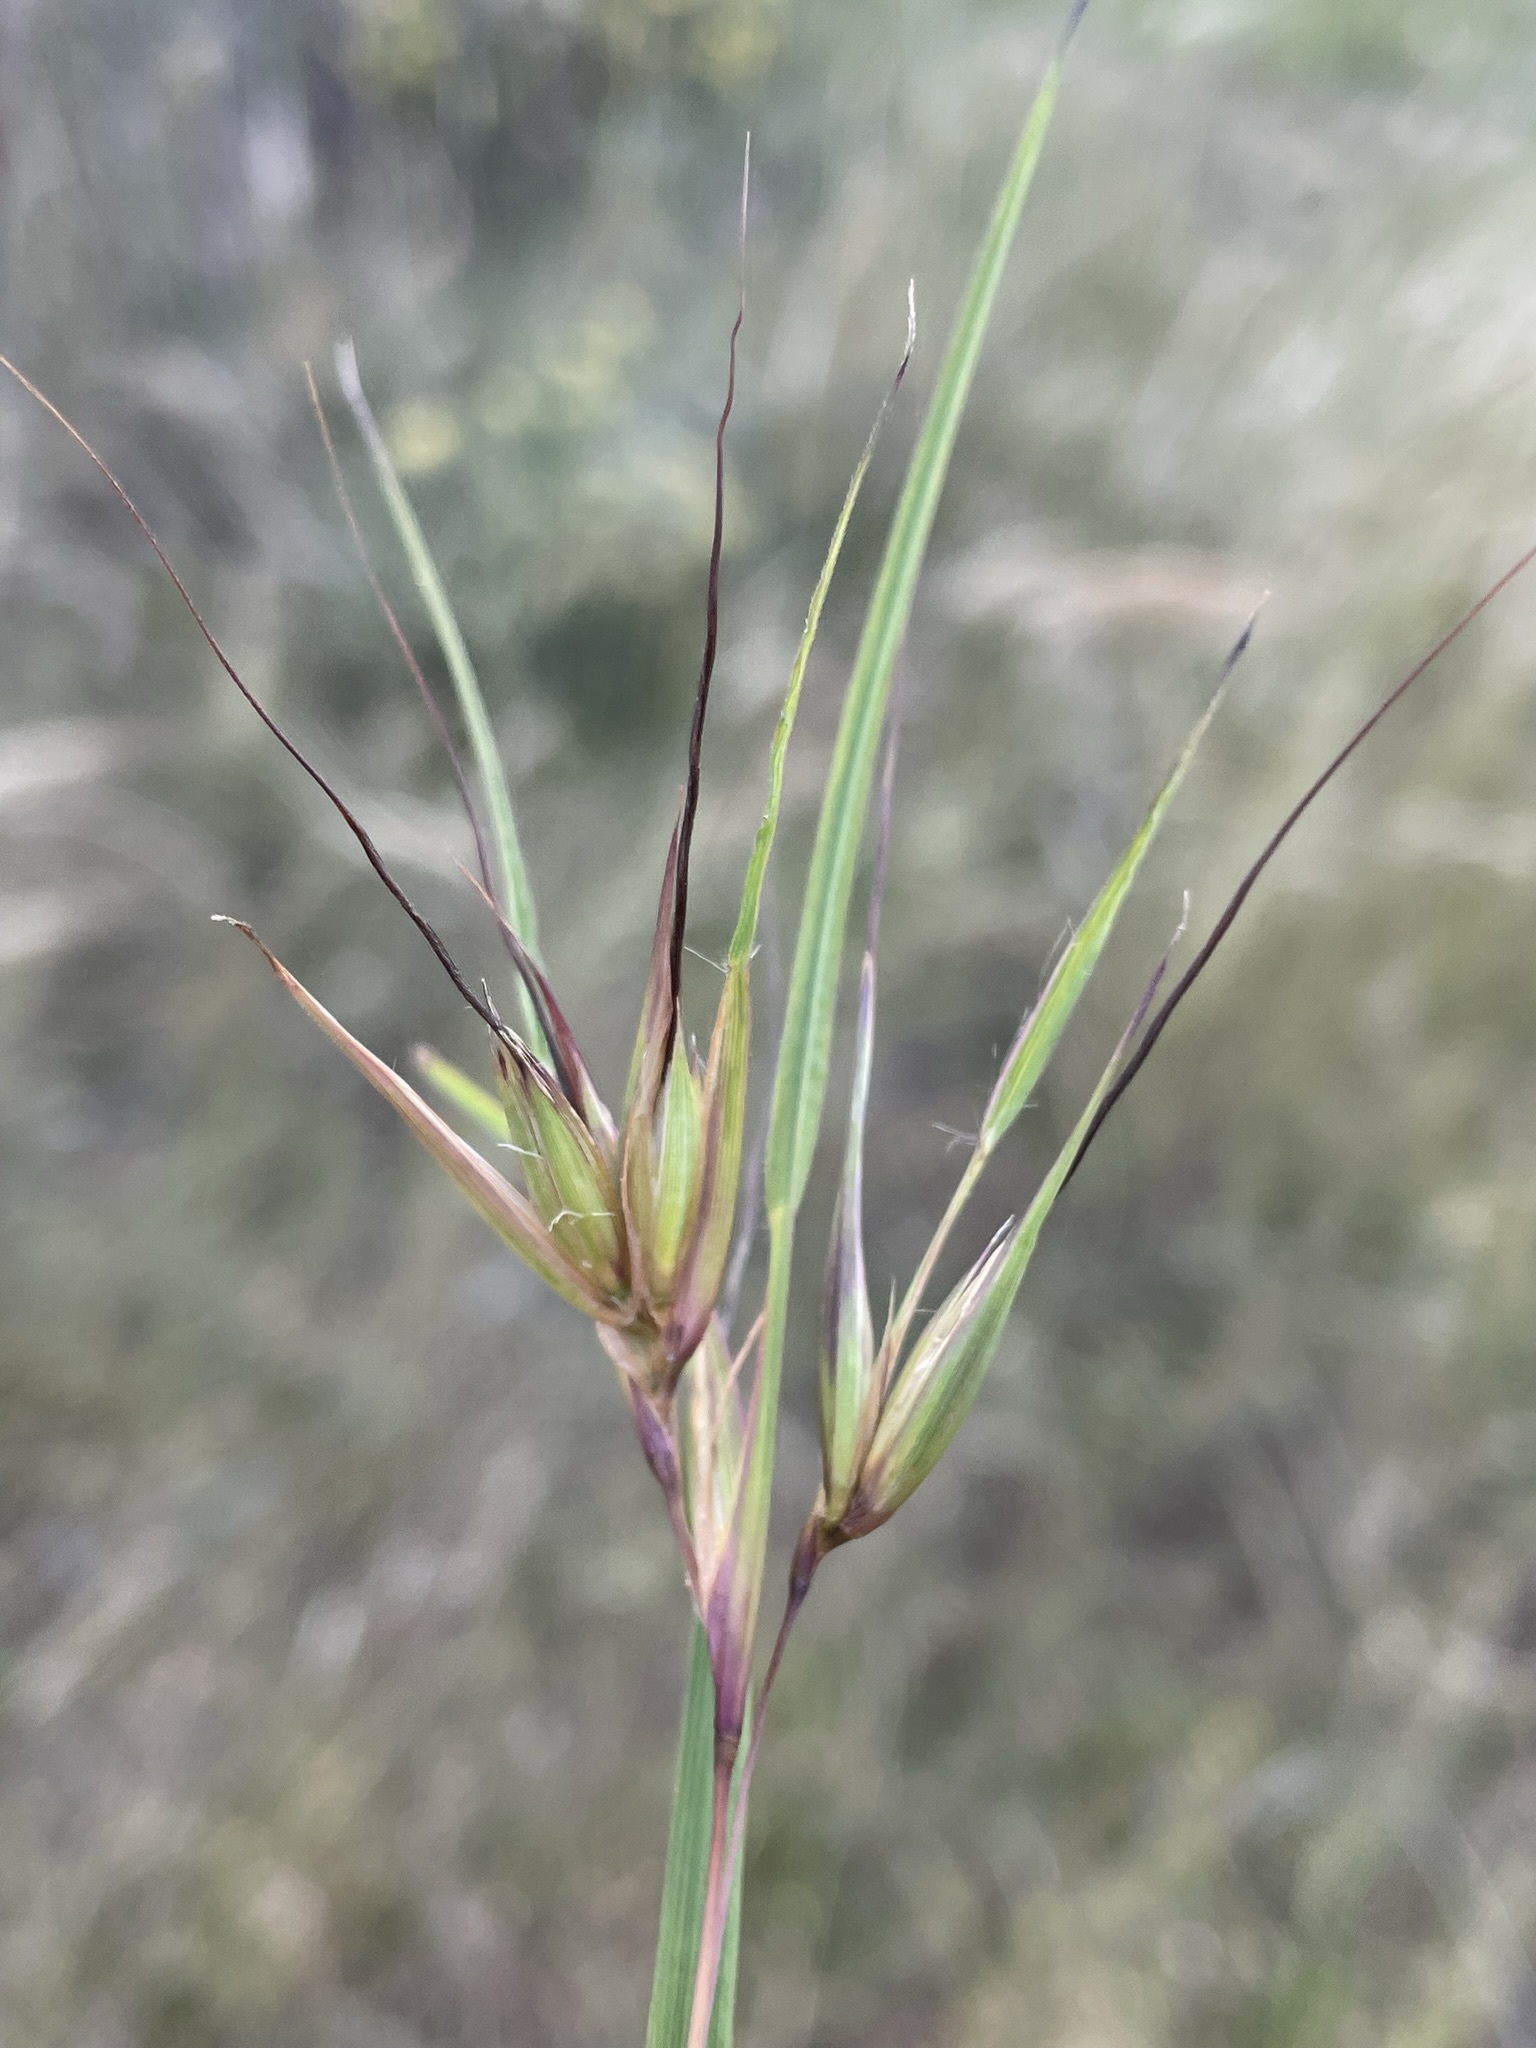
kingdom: Plantae
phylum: Tracheophyta
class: Liliopsida
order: Poales
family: Poaceae
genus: Themeda
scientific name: Themeda triandra
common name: Kangaroo grass
